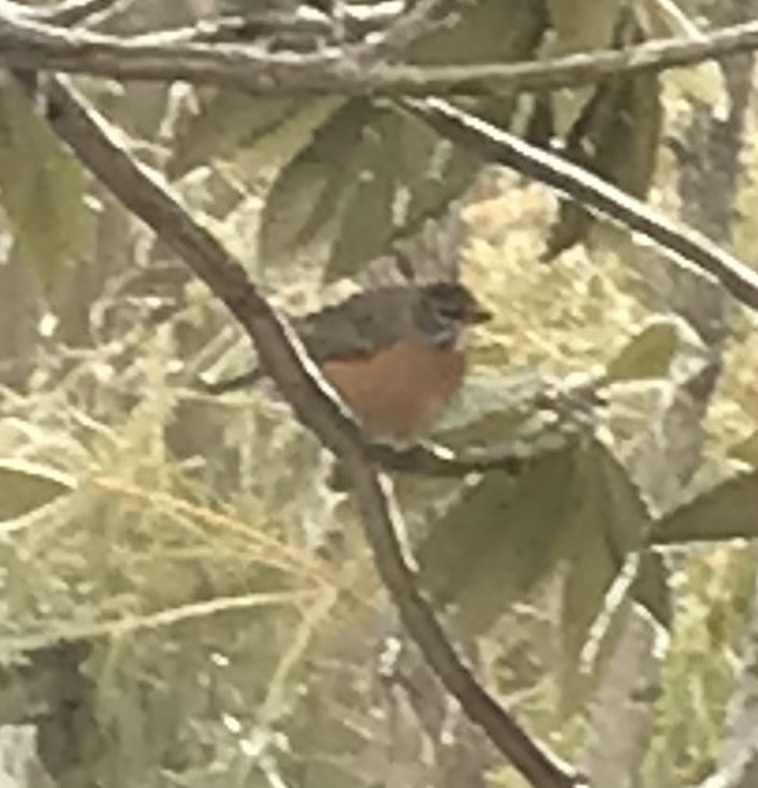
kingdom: Animalia
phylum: Chordata
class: Aves
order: Passeriformes
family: Turdidae
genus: Turdus
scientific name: Turdus migratorius
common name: American robin
